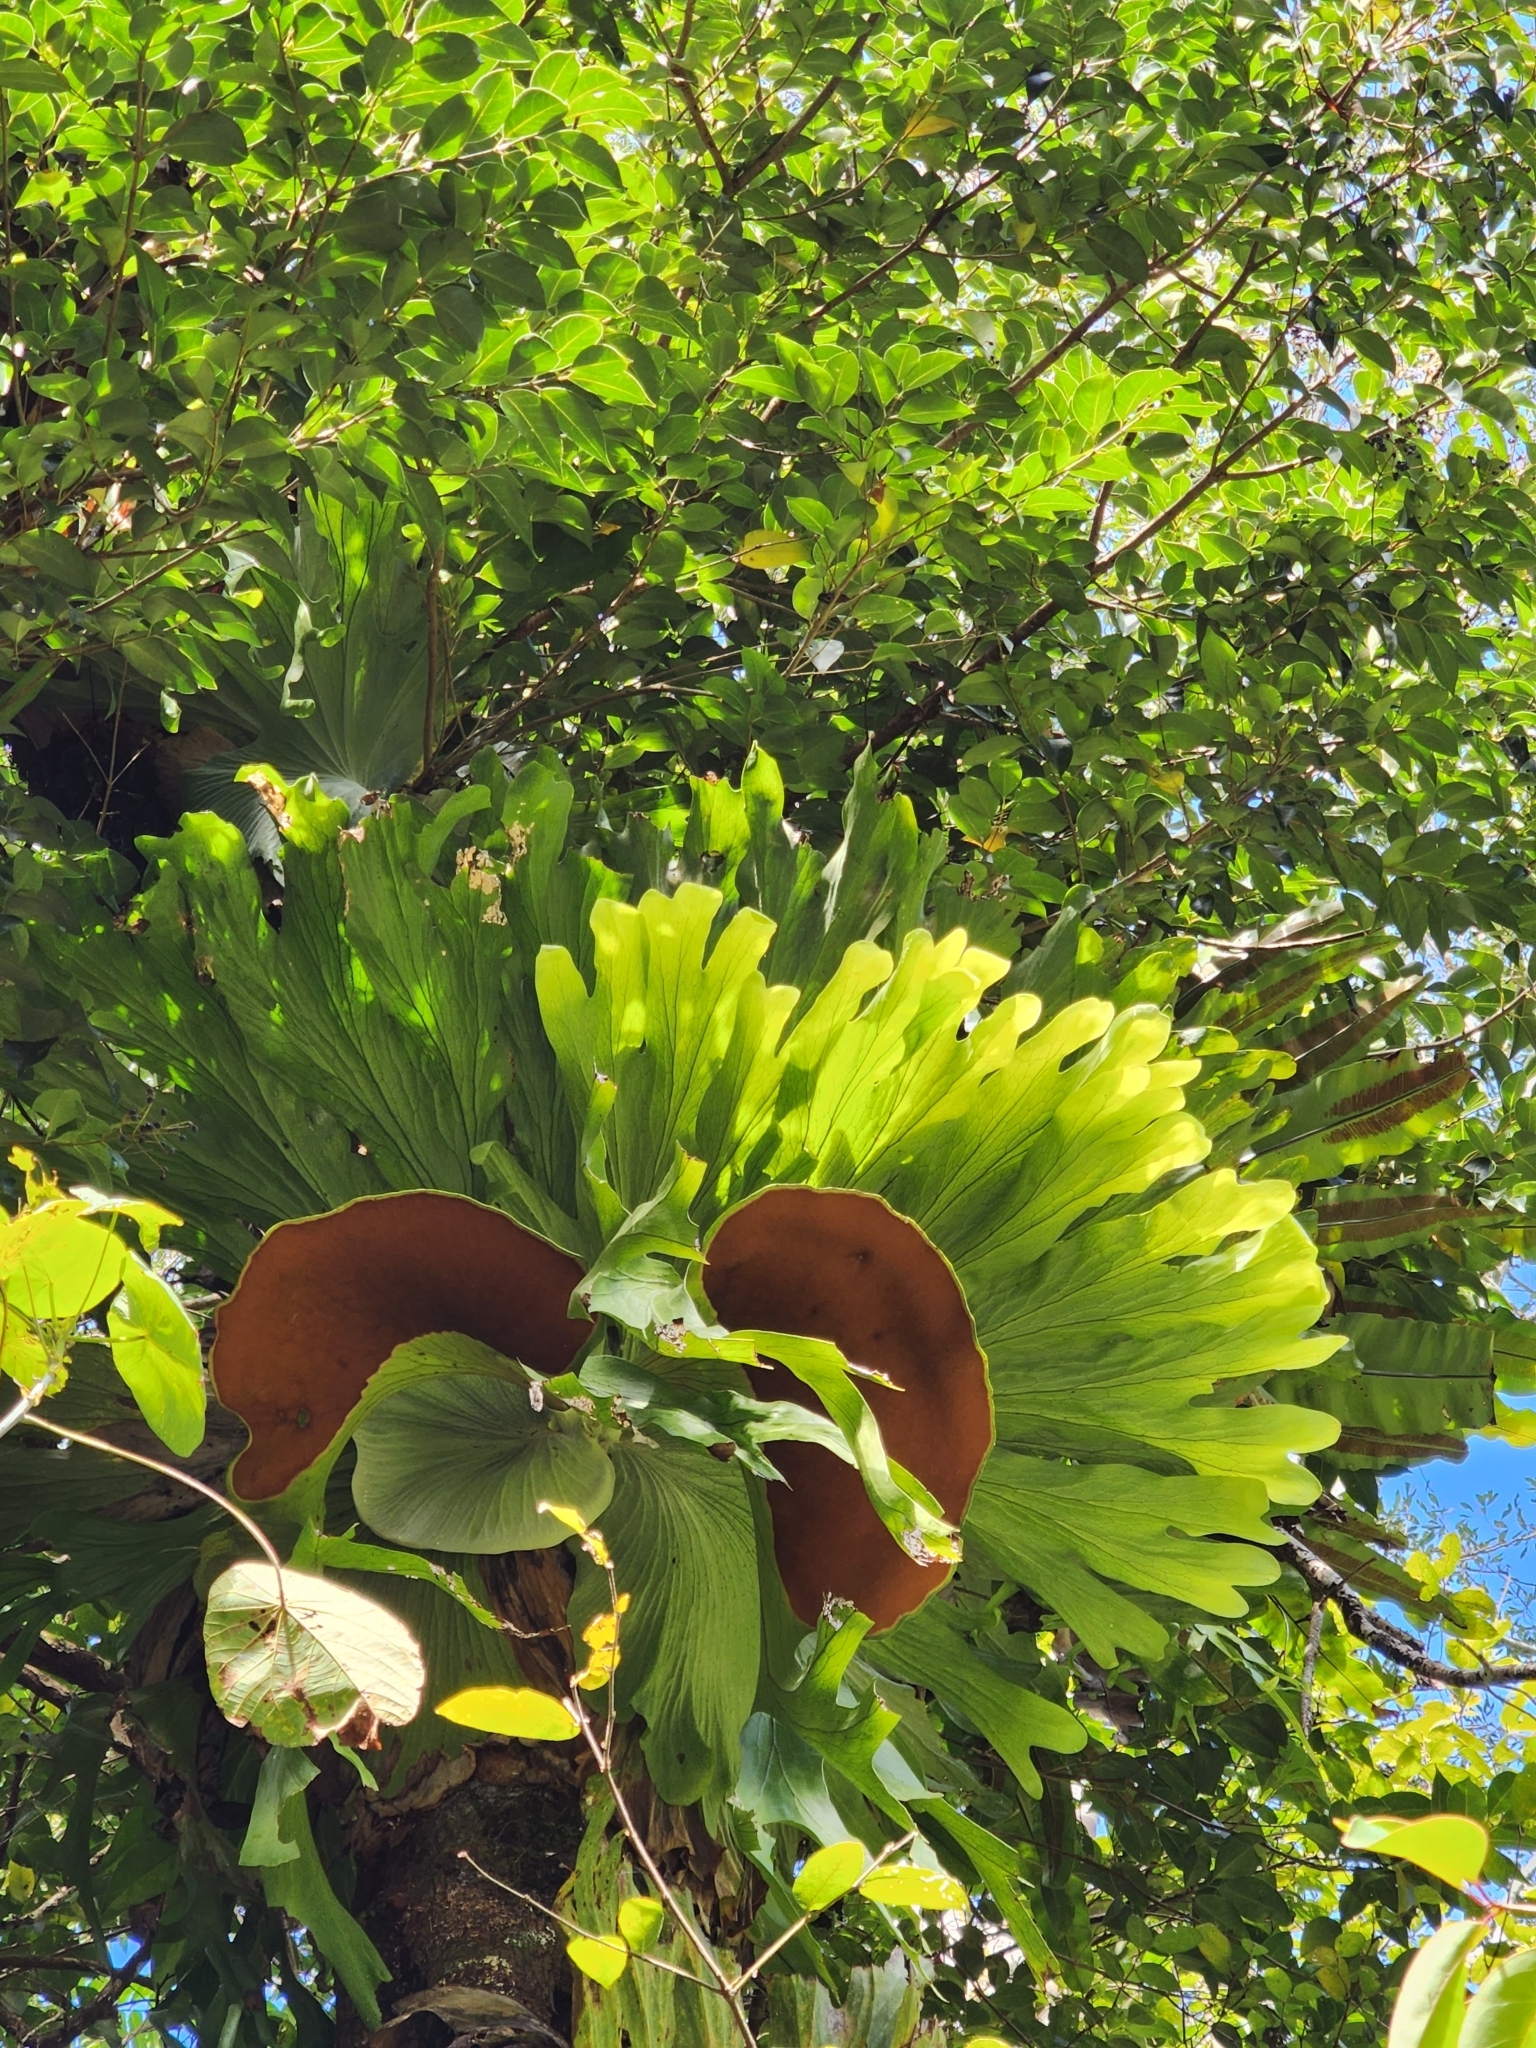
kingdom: Plantae
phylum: Tracheophyta
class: Polypodiopsida
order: Polypodiales
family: Polypodiaceae
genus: Platycerium
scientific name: Platycerium superbum
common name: Staghorn fern
